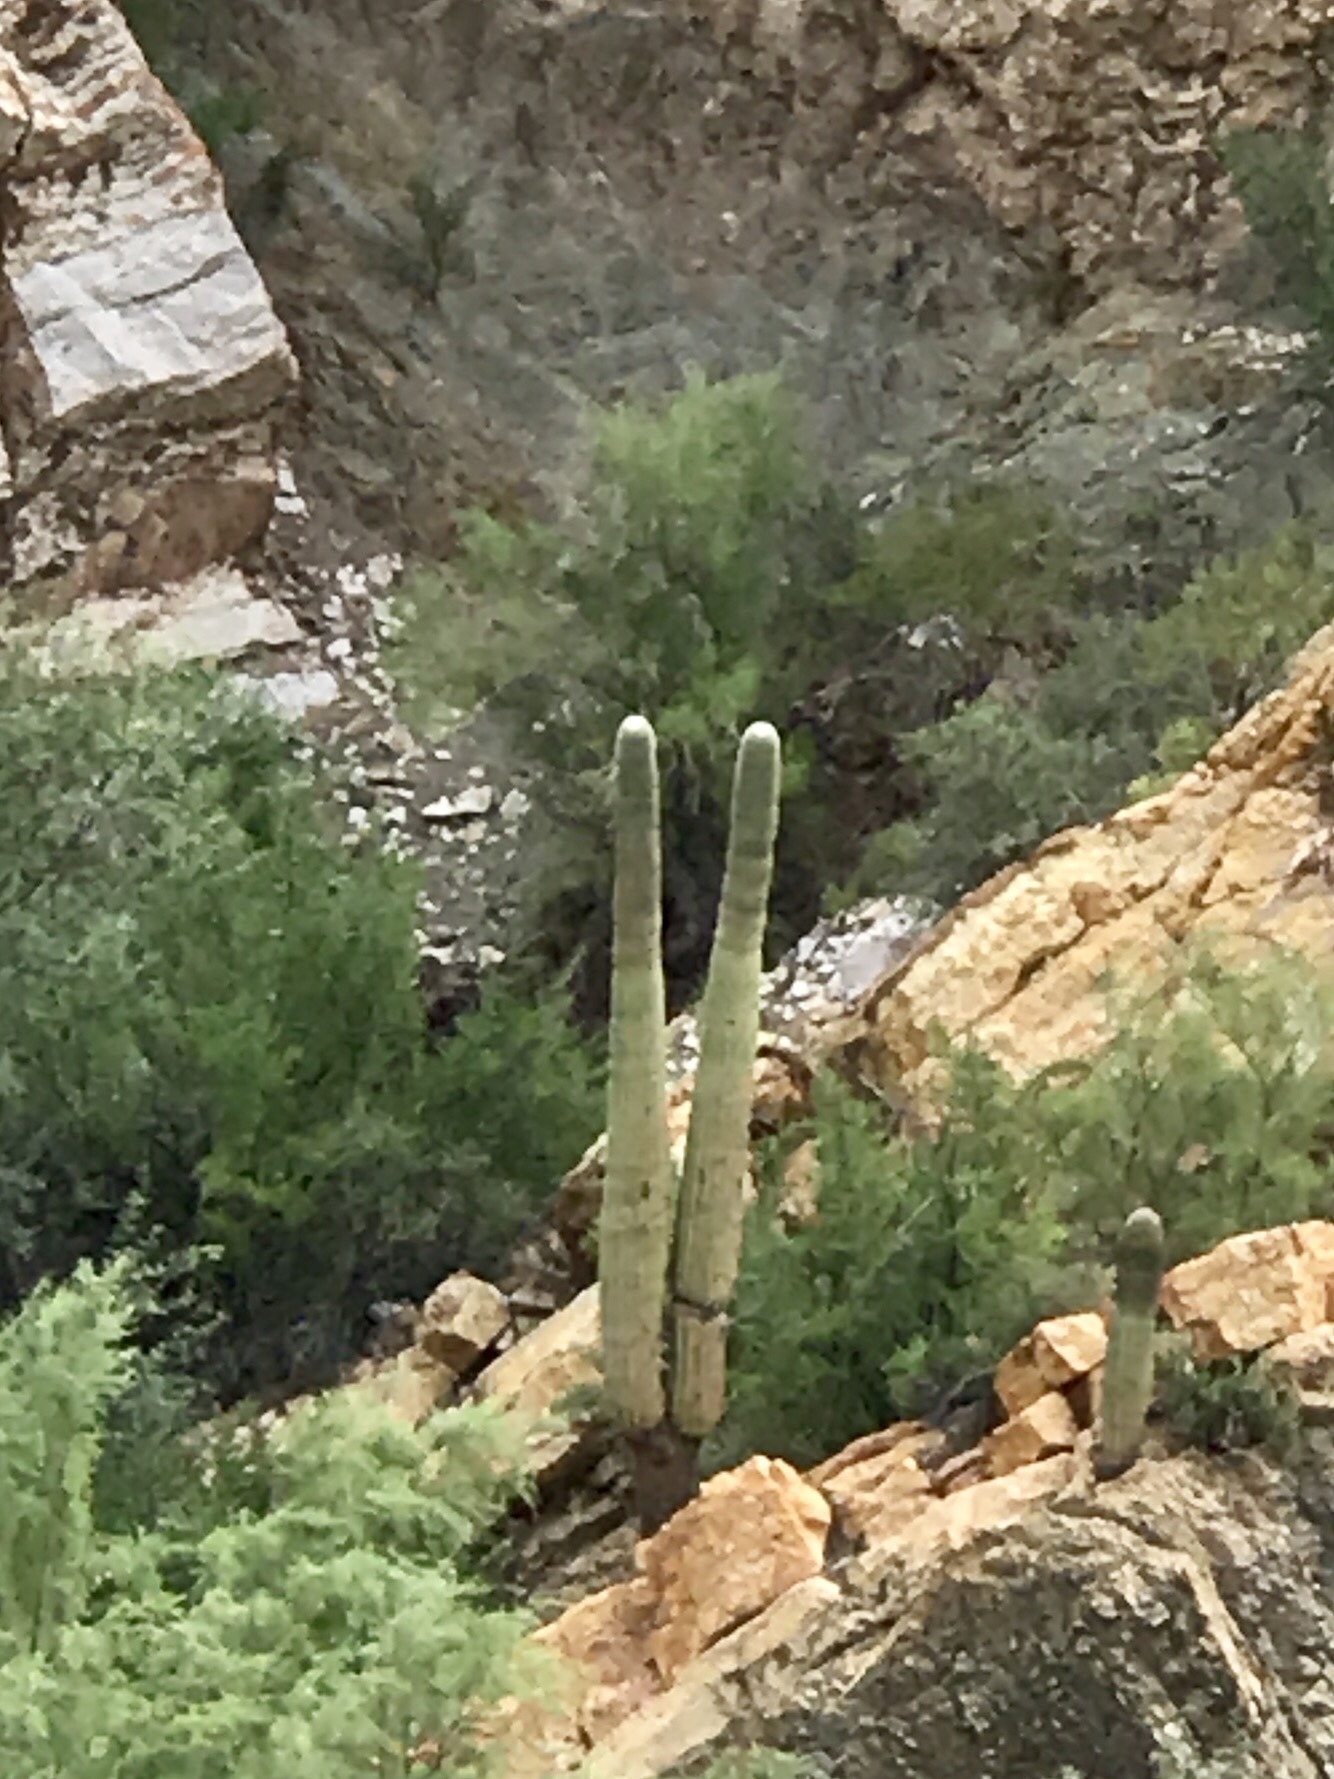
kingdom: Plantae
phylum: Tracheophyta
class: Magnoliopsida
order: Caryophyllales
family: Cactaceae
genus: Carnegiea
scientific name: Carnegiea gigantea
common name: Saguaro
